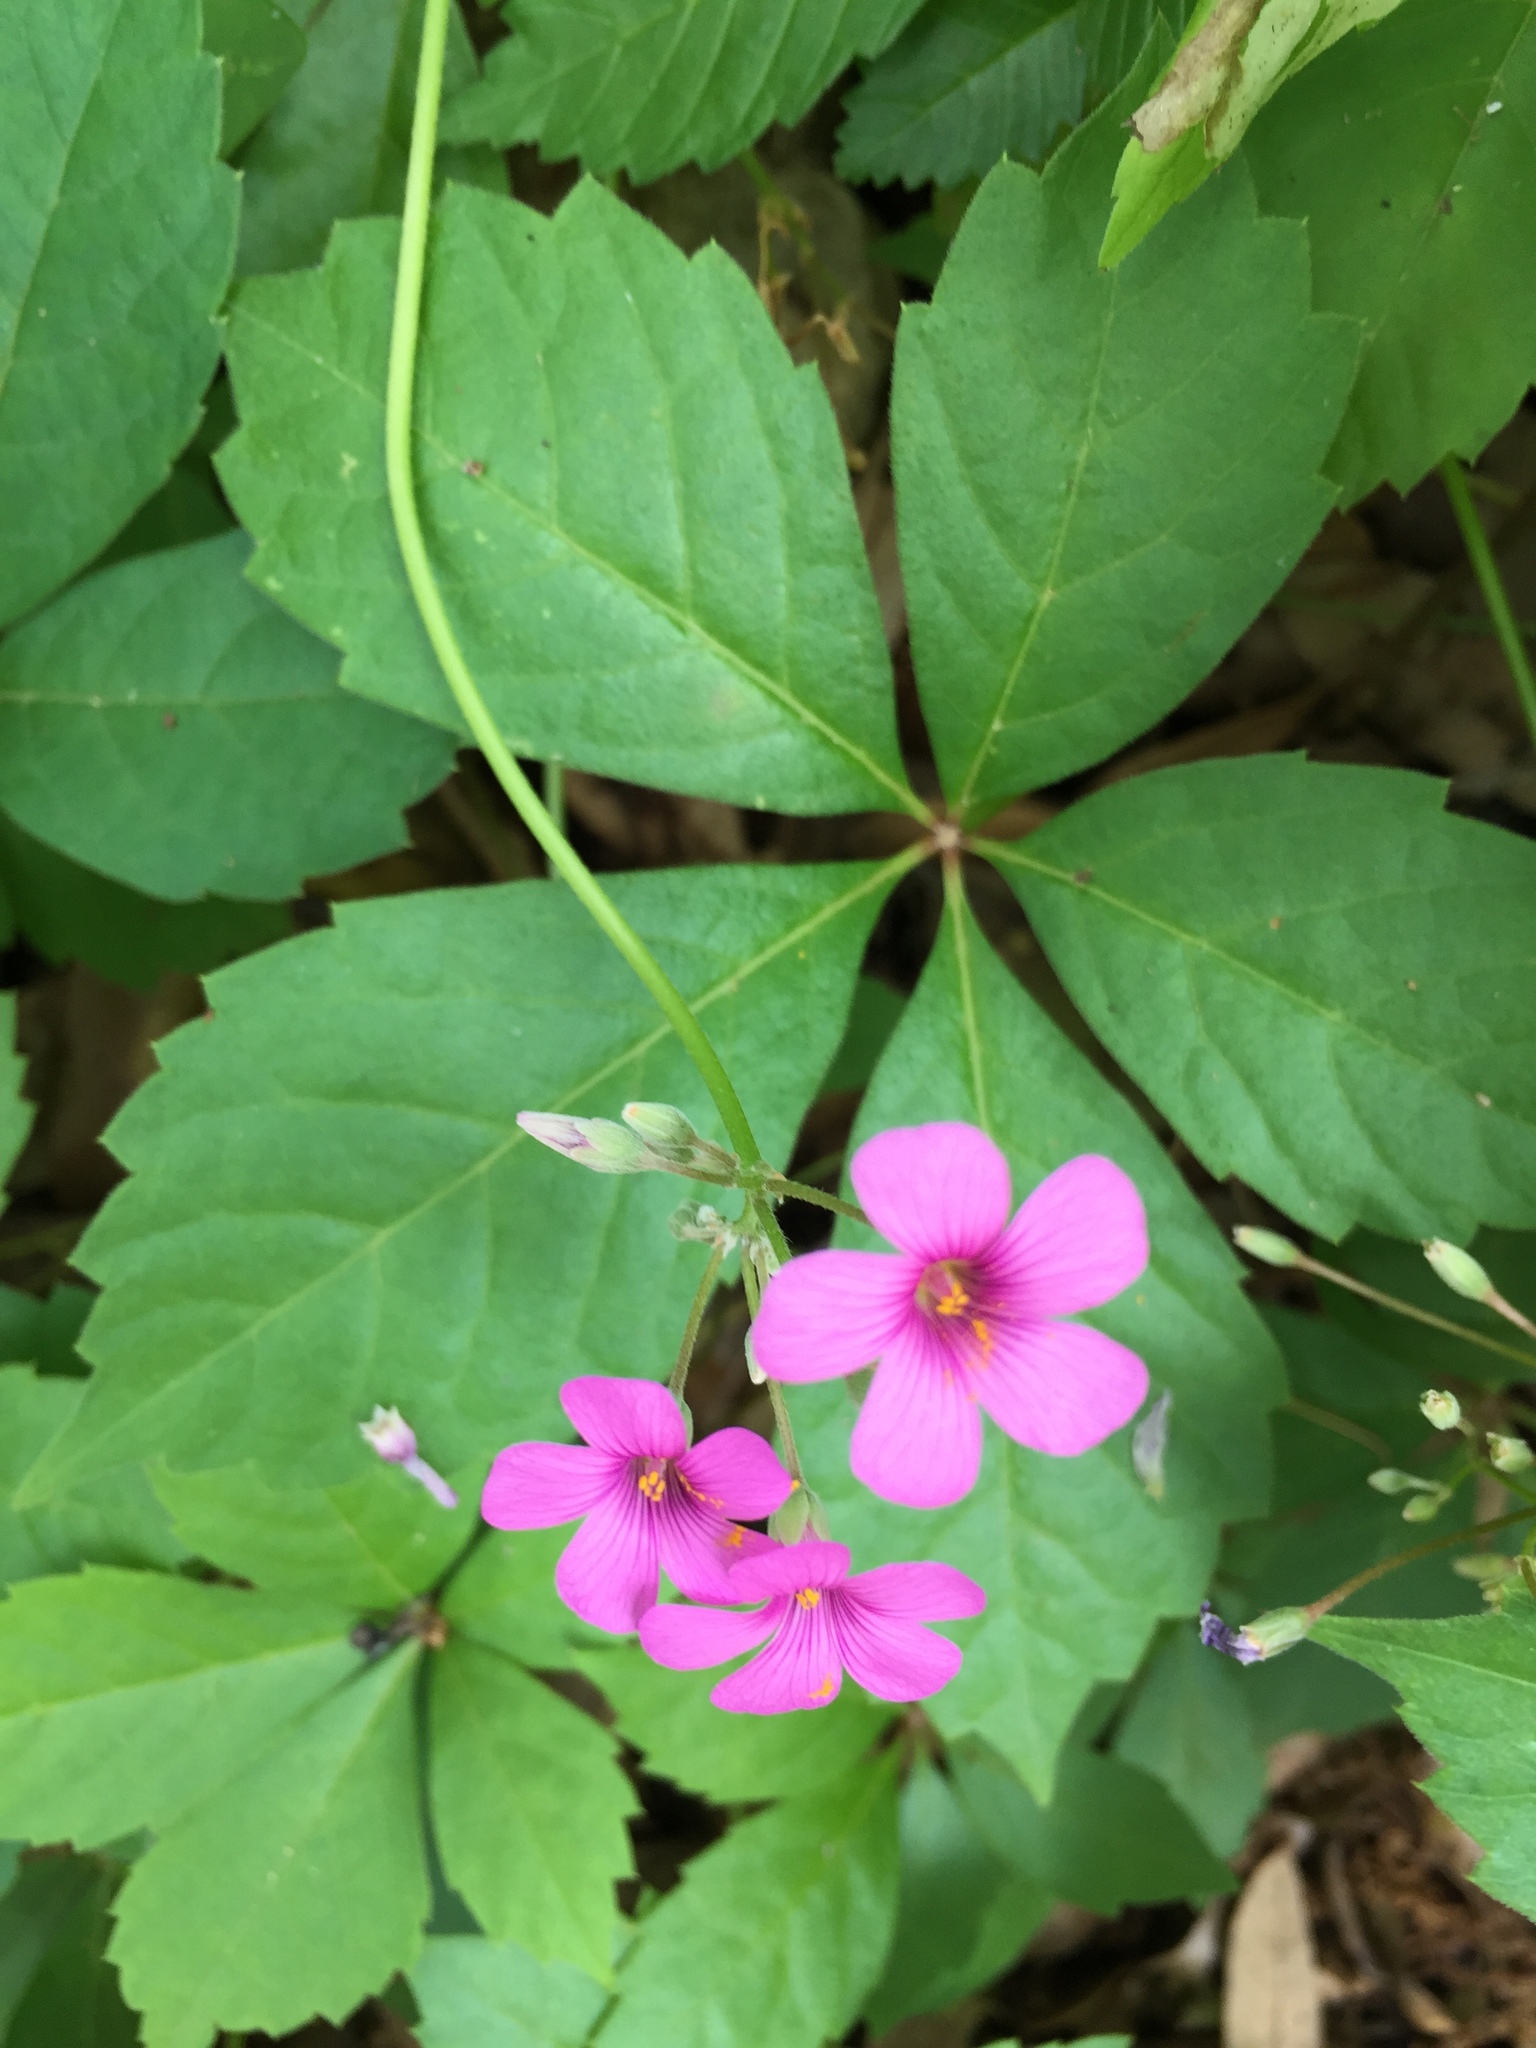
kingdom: Plantae
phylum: Tracheophyta
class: Magnoliopsida
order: Oxalidales
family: Oxalidaceae
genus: Oxalis
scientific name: Oxalis articulata
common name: Pink-sorrel
